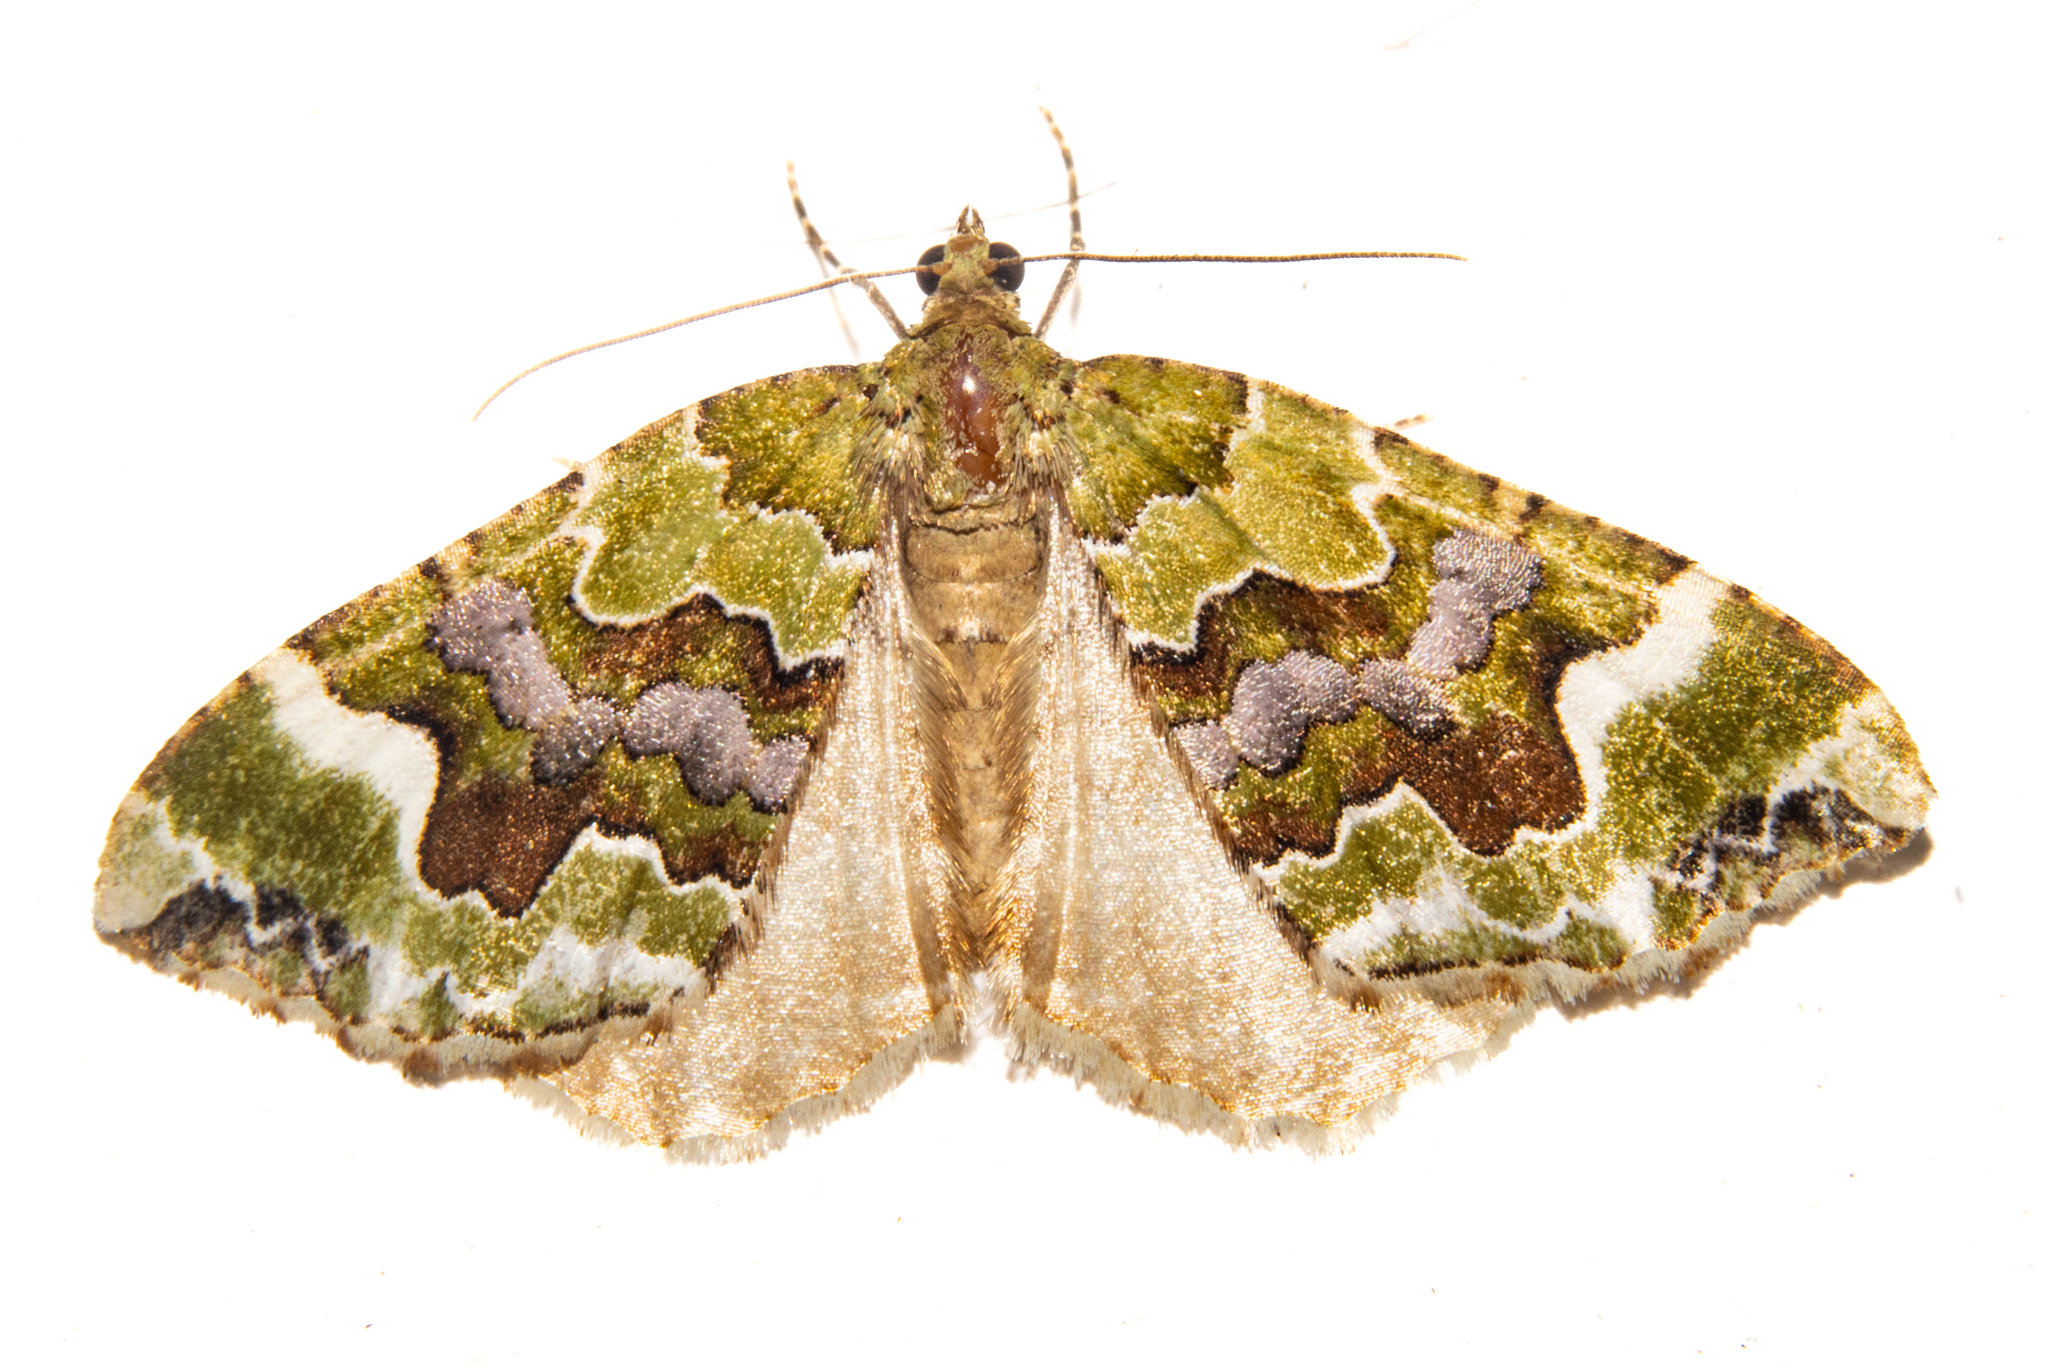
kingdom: Animalia
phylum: Arthropoda
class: Insecta
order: Lepidoptera
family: Geometridae
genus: Hydriomena
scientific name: Hydriomena purpurifera
